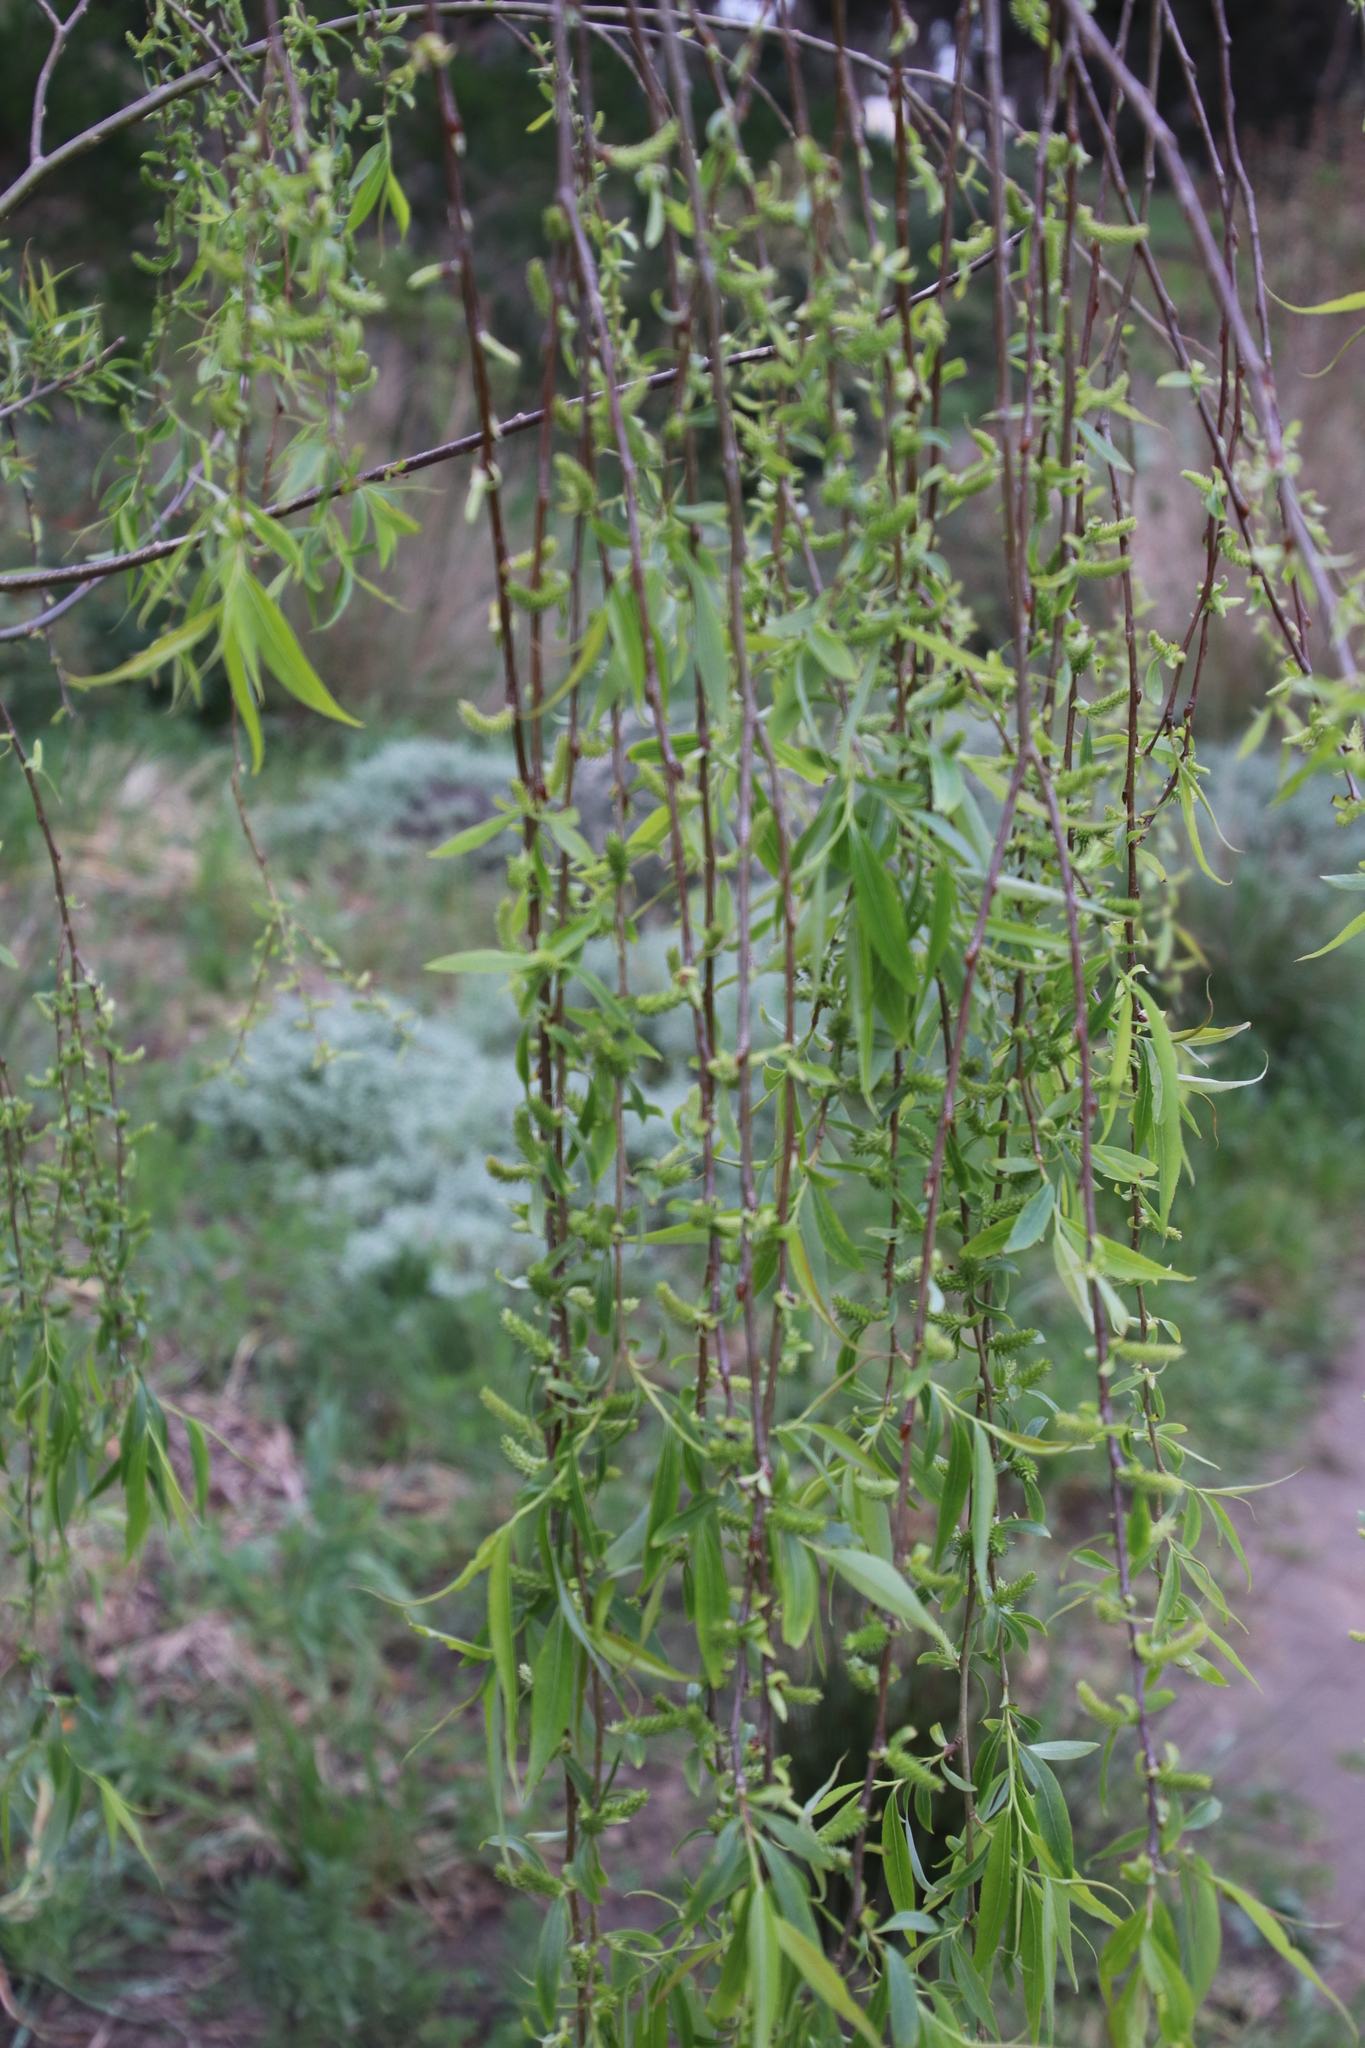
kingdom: Plantae
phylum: Tracheophyta
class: Magnoliopsida
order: Malpighiales
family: Salicaceae
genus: Salix
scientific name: Salix babylonica
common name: Weeping willow
